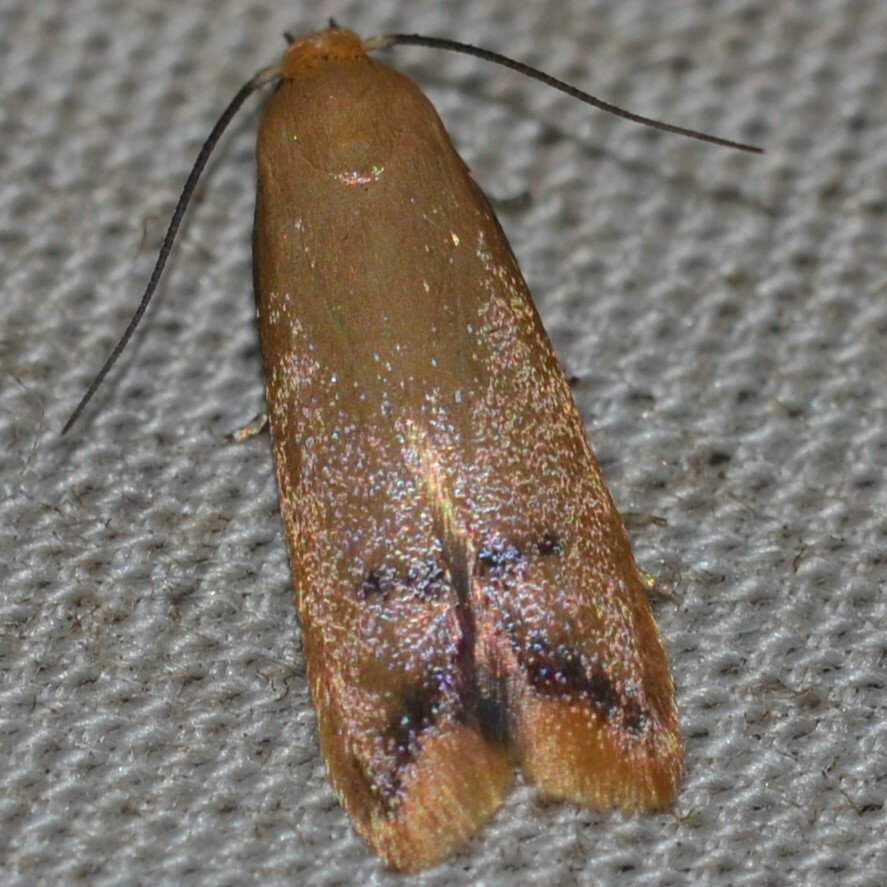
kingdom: Animalia
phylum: Arthropoda
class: Insecta
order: Lepidoptera
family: Oecophoridae
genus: Tachystola
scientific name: Tachystola hemisema
